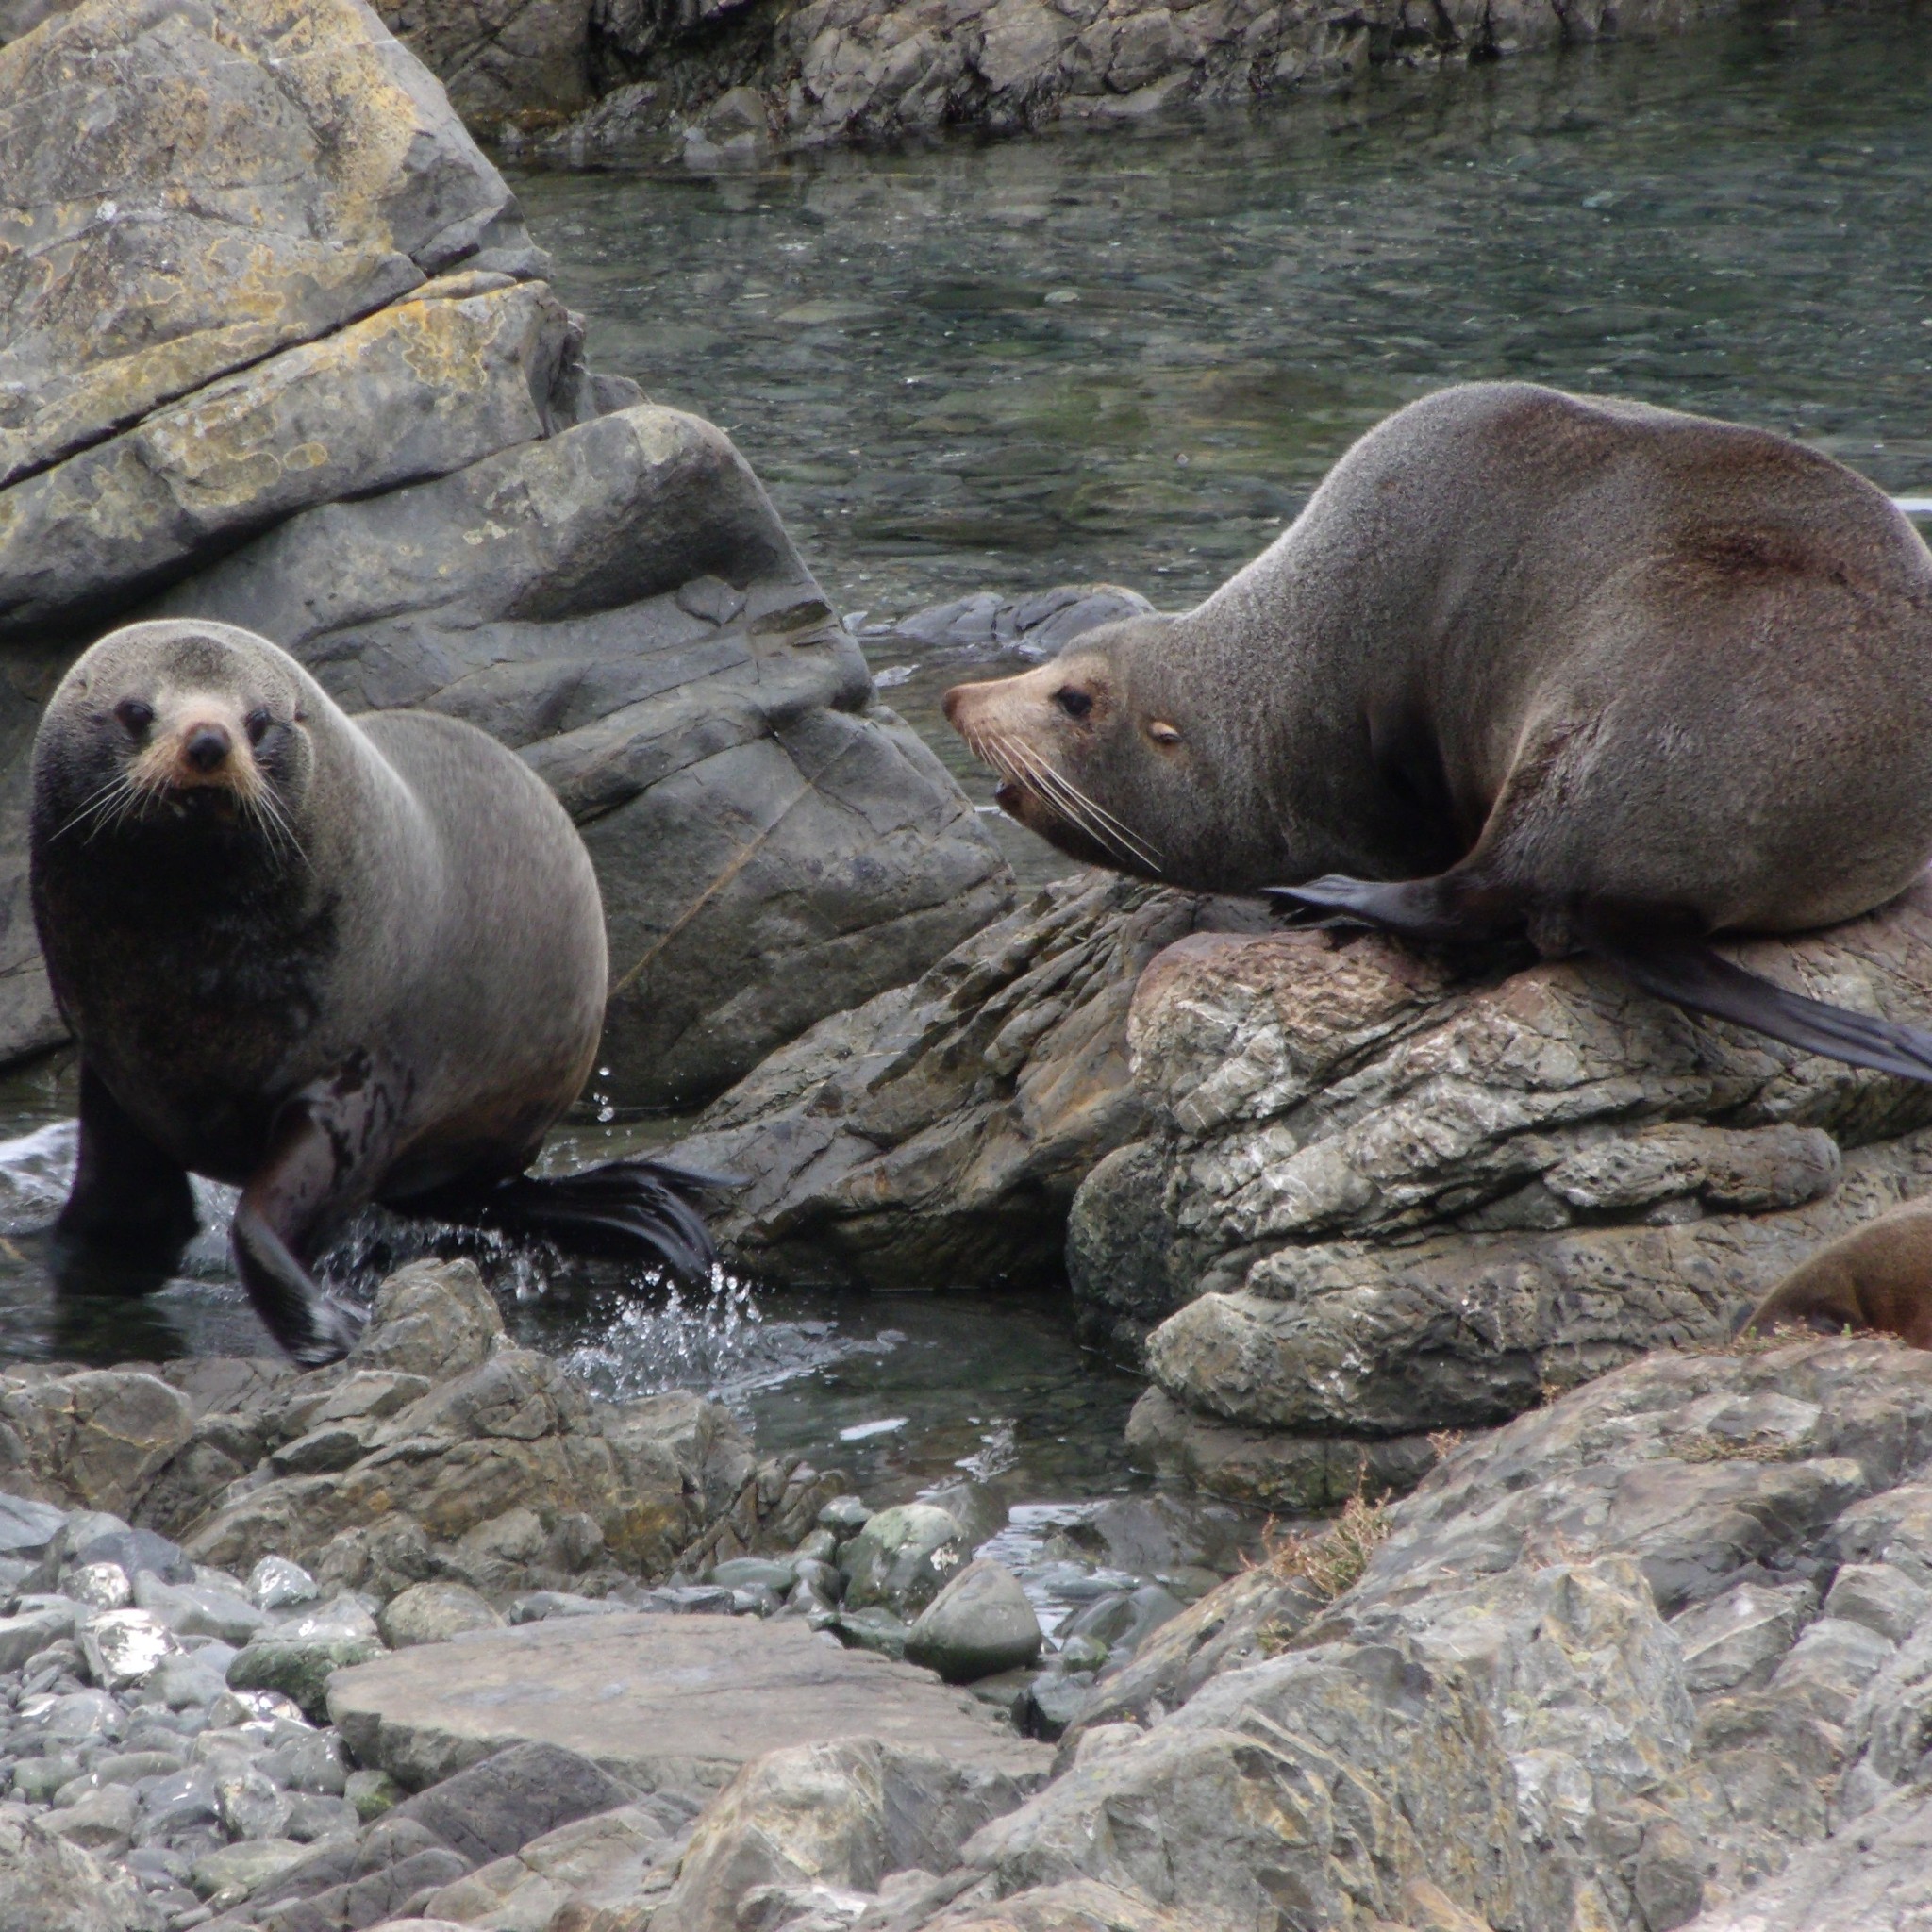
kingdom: Animalia
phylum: Chordata
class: Mammalia
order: Carnivora
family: Otariidae
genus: Arctocephalus
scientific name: Arctocephalus forsteri
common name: New zealand fur seal
